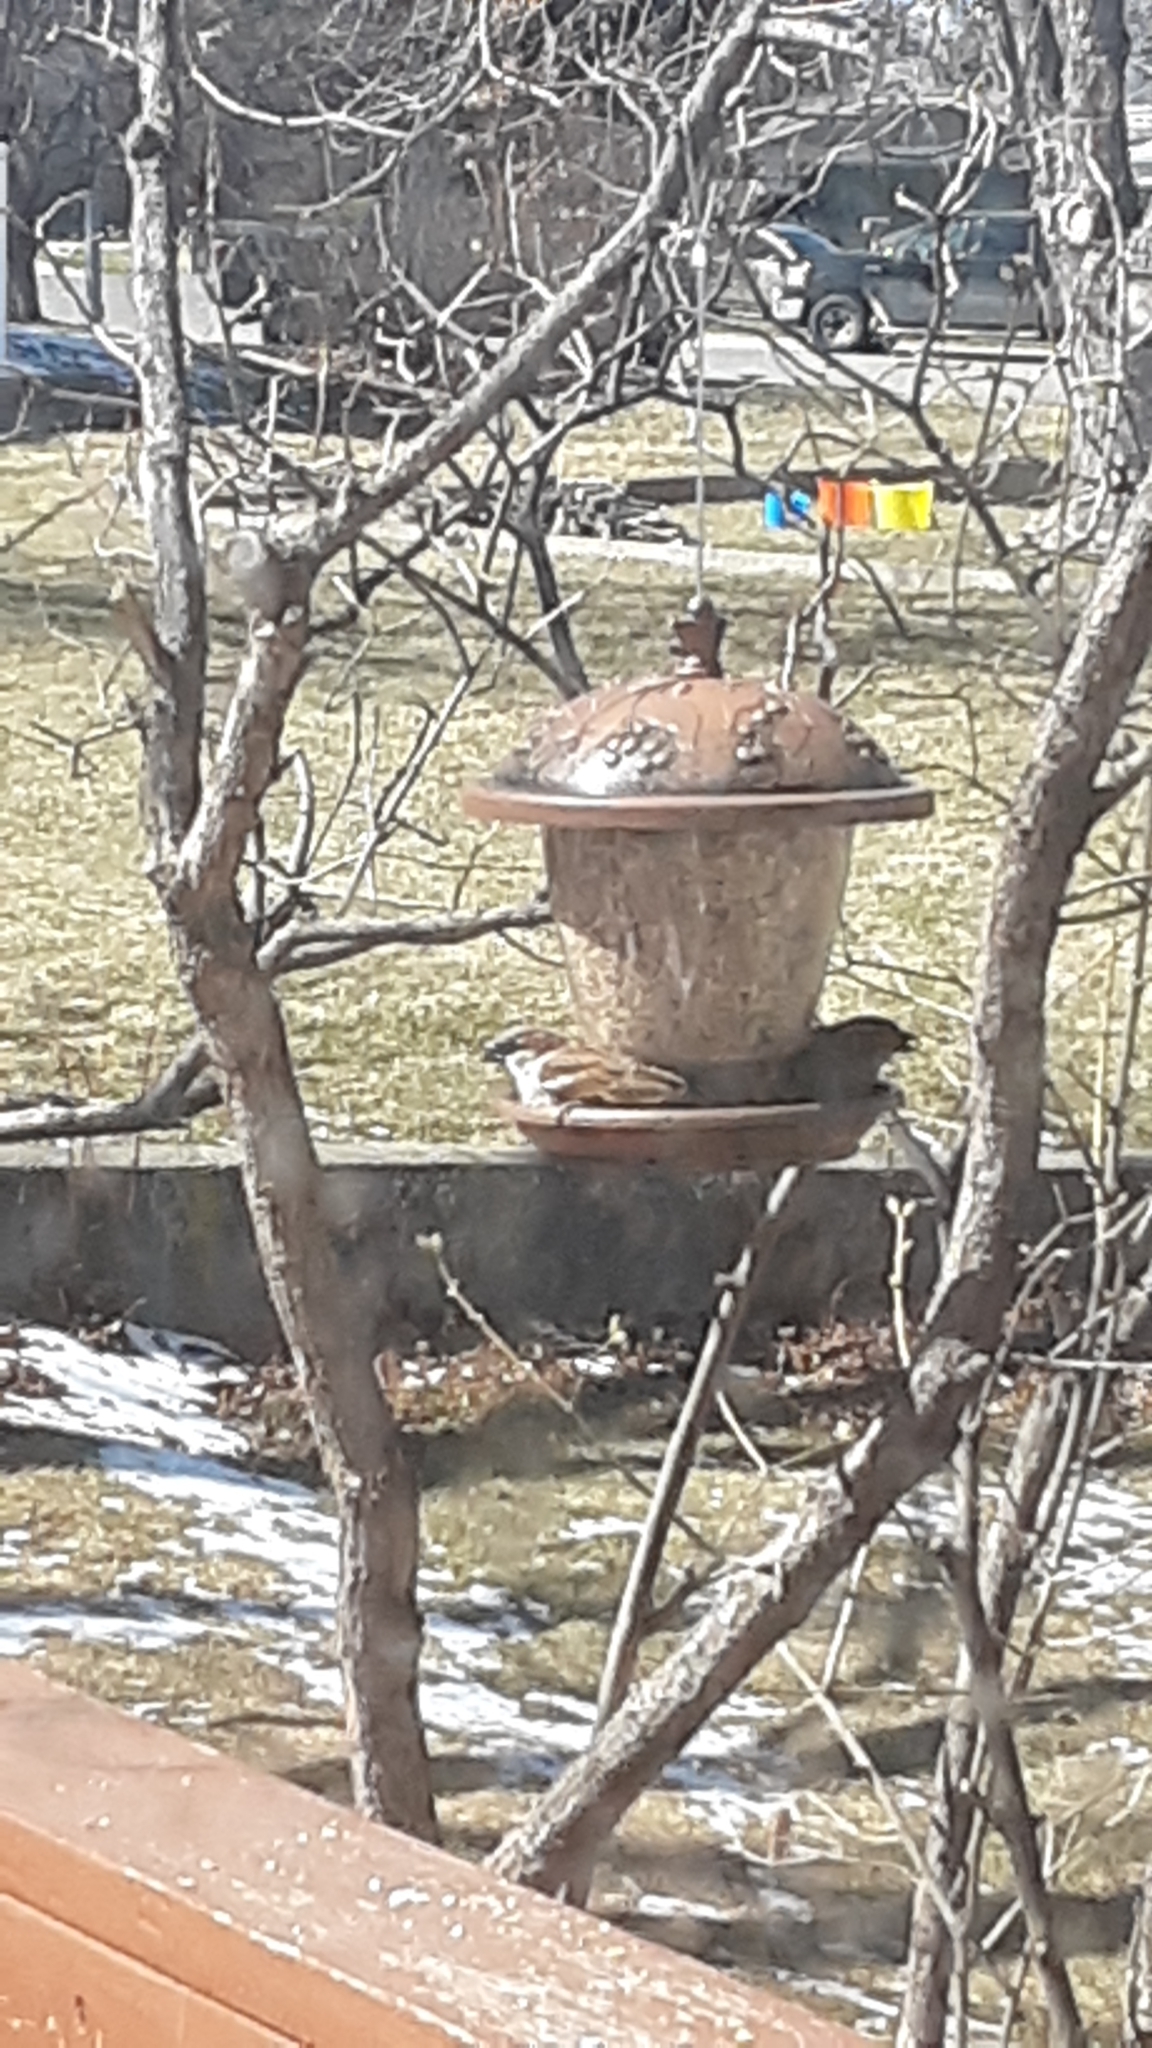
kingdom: Animalia
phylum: Chordata
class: Aves
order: Passeriformes
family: Passeridae
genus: Passer
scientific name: Passer domesticus
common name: House sparrow
